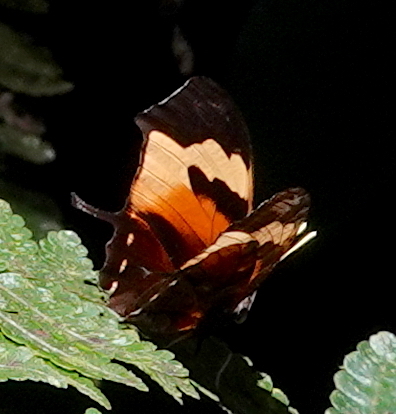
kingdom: Animalia
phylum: Arthropoda
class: Insecta
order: Lepidoptera
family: Nymphalidae
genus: Consul
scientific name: Consul fabius
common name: Tiger leafwing
